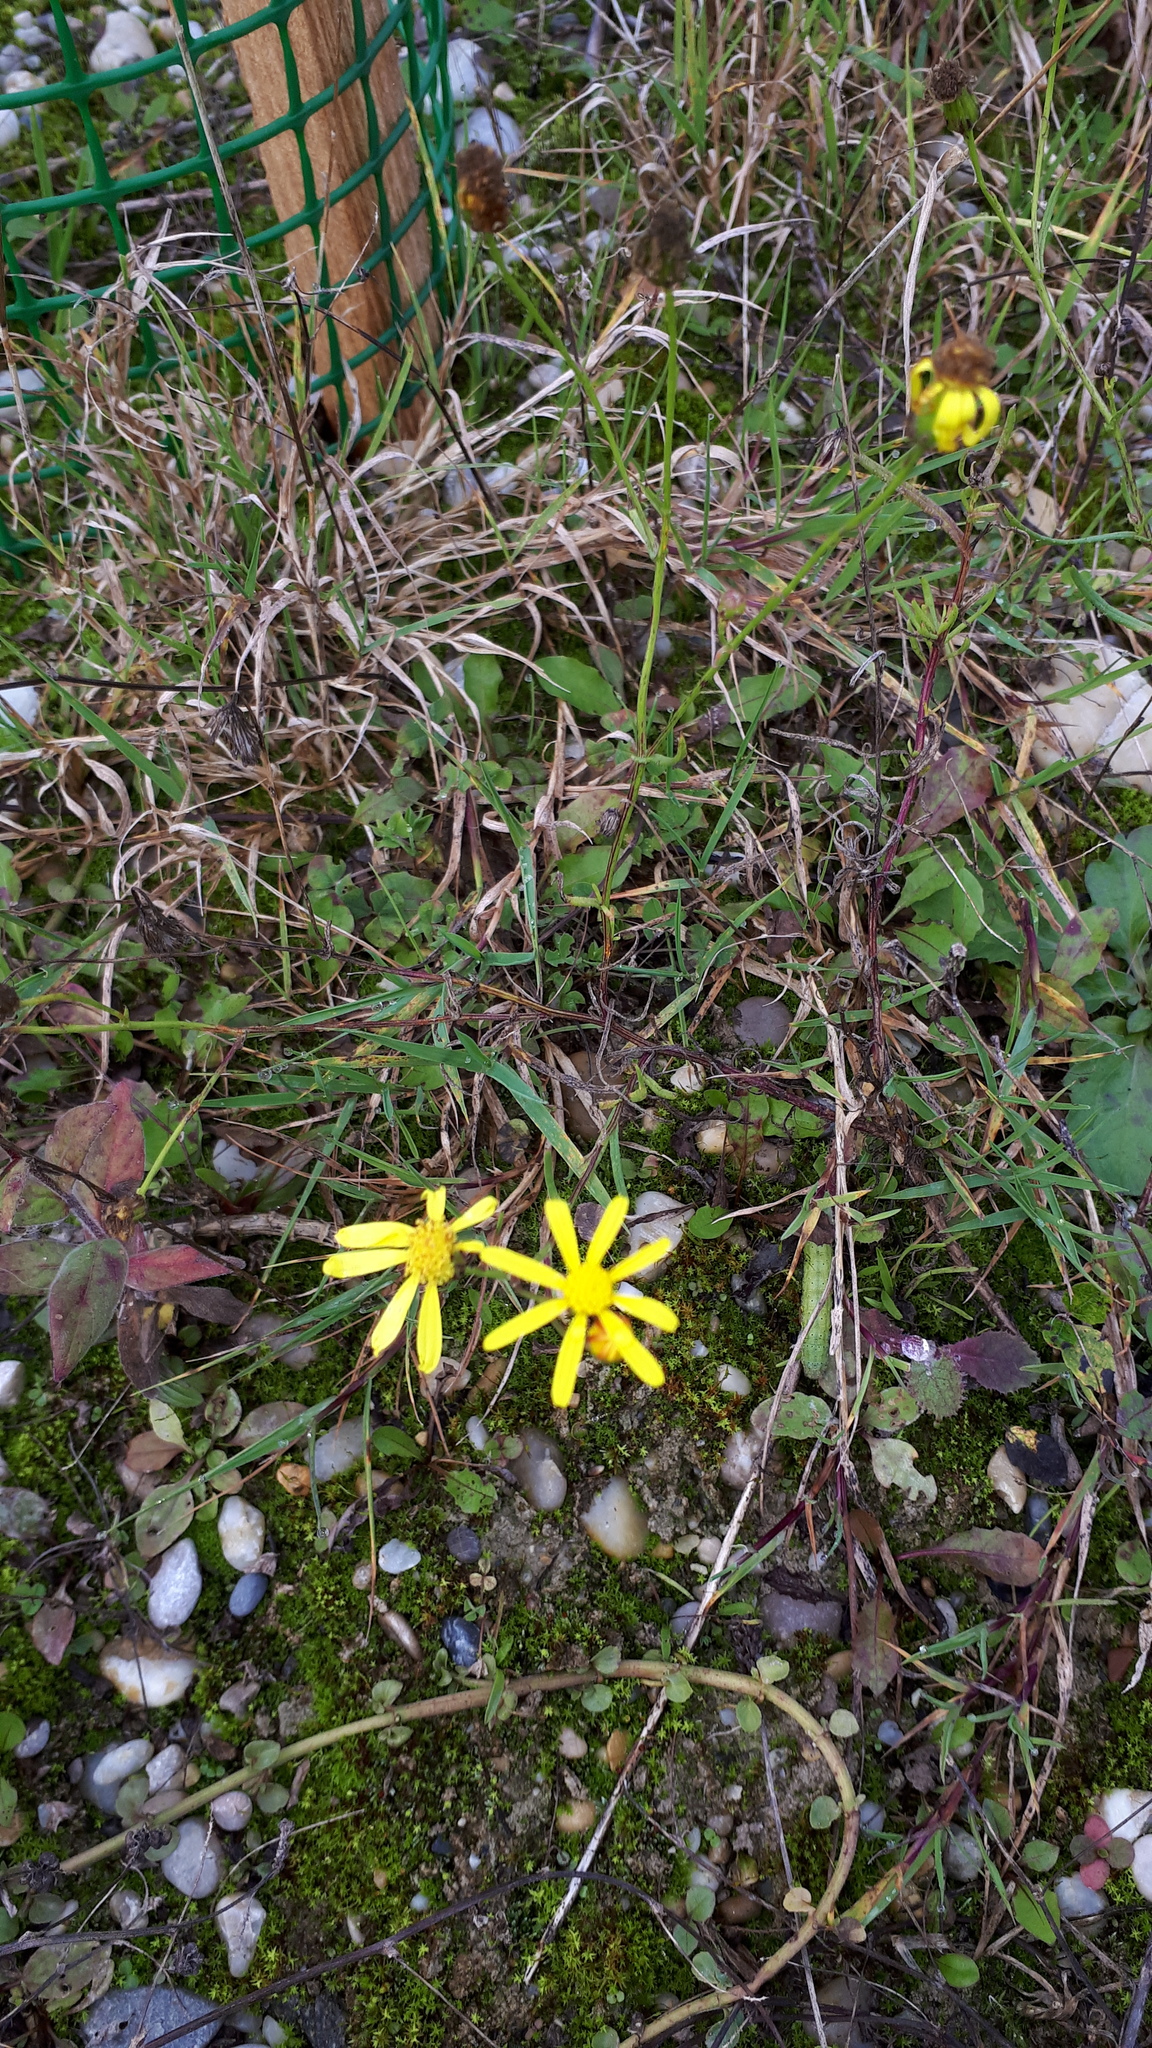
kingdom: Plantae
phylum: Tracheophyta
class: Magnoliopsida
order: Asterales
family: Asteraceae
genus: Senecio
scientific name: Senecio inaequidens
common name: Narrow-leaved ragwort
